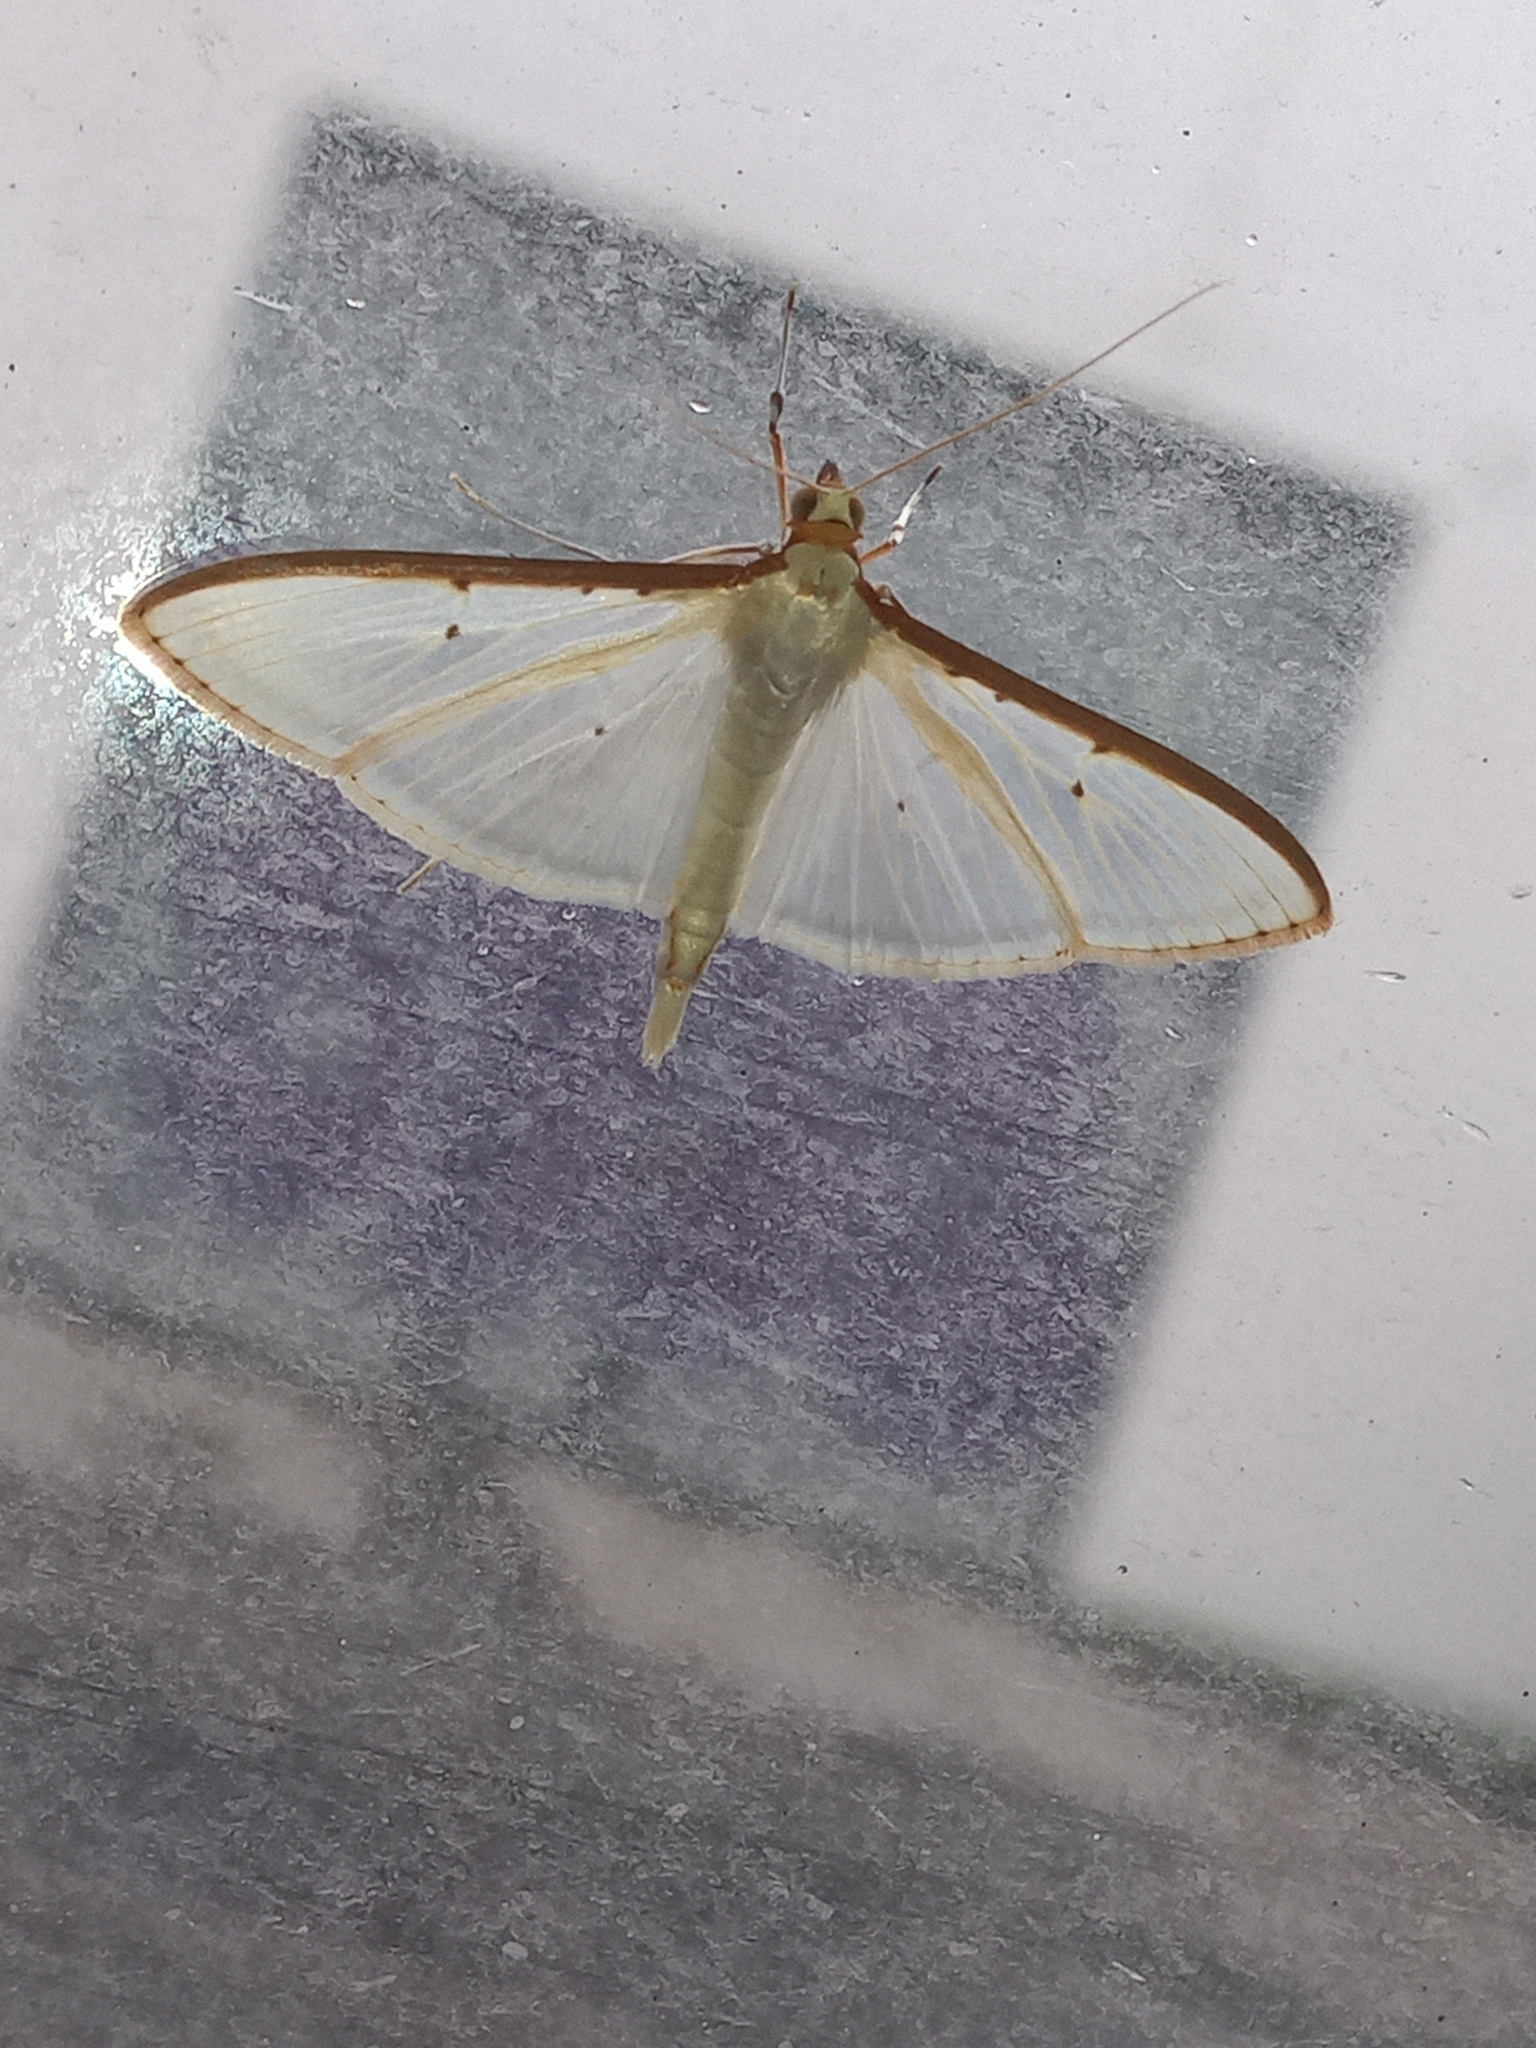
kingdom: Animalia
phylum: Arthropoda
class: Insecta
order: Lepidoptera
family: Crambidae
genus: Palpita
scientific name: Palpita quadristigmalis
